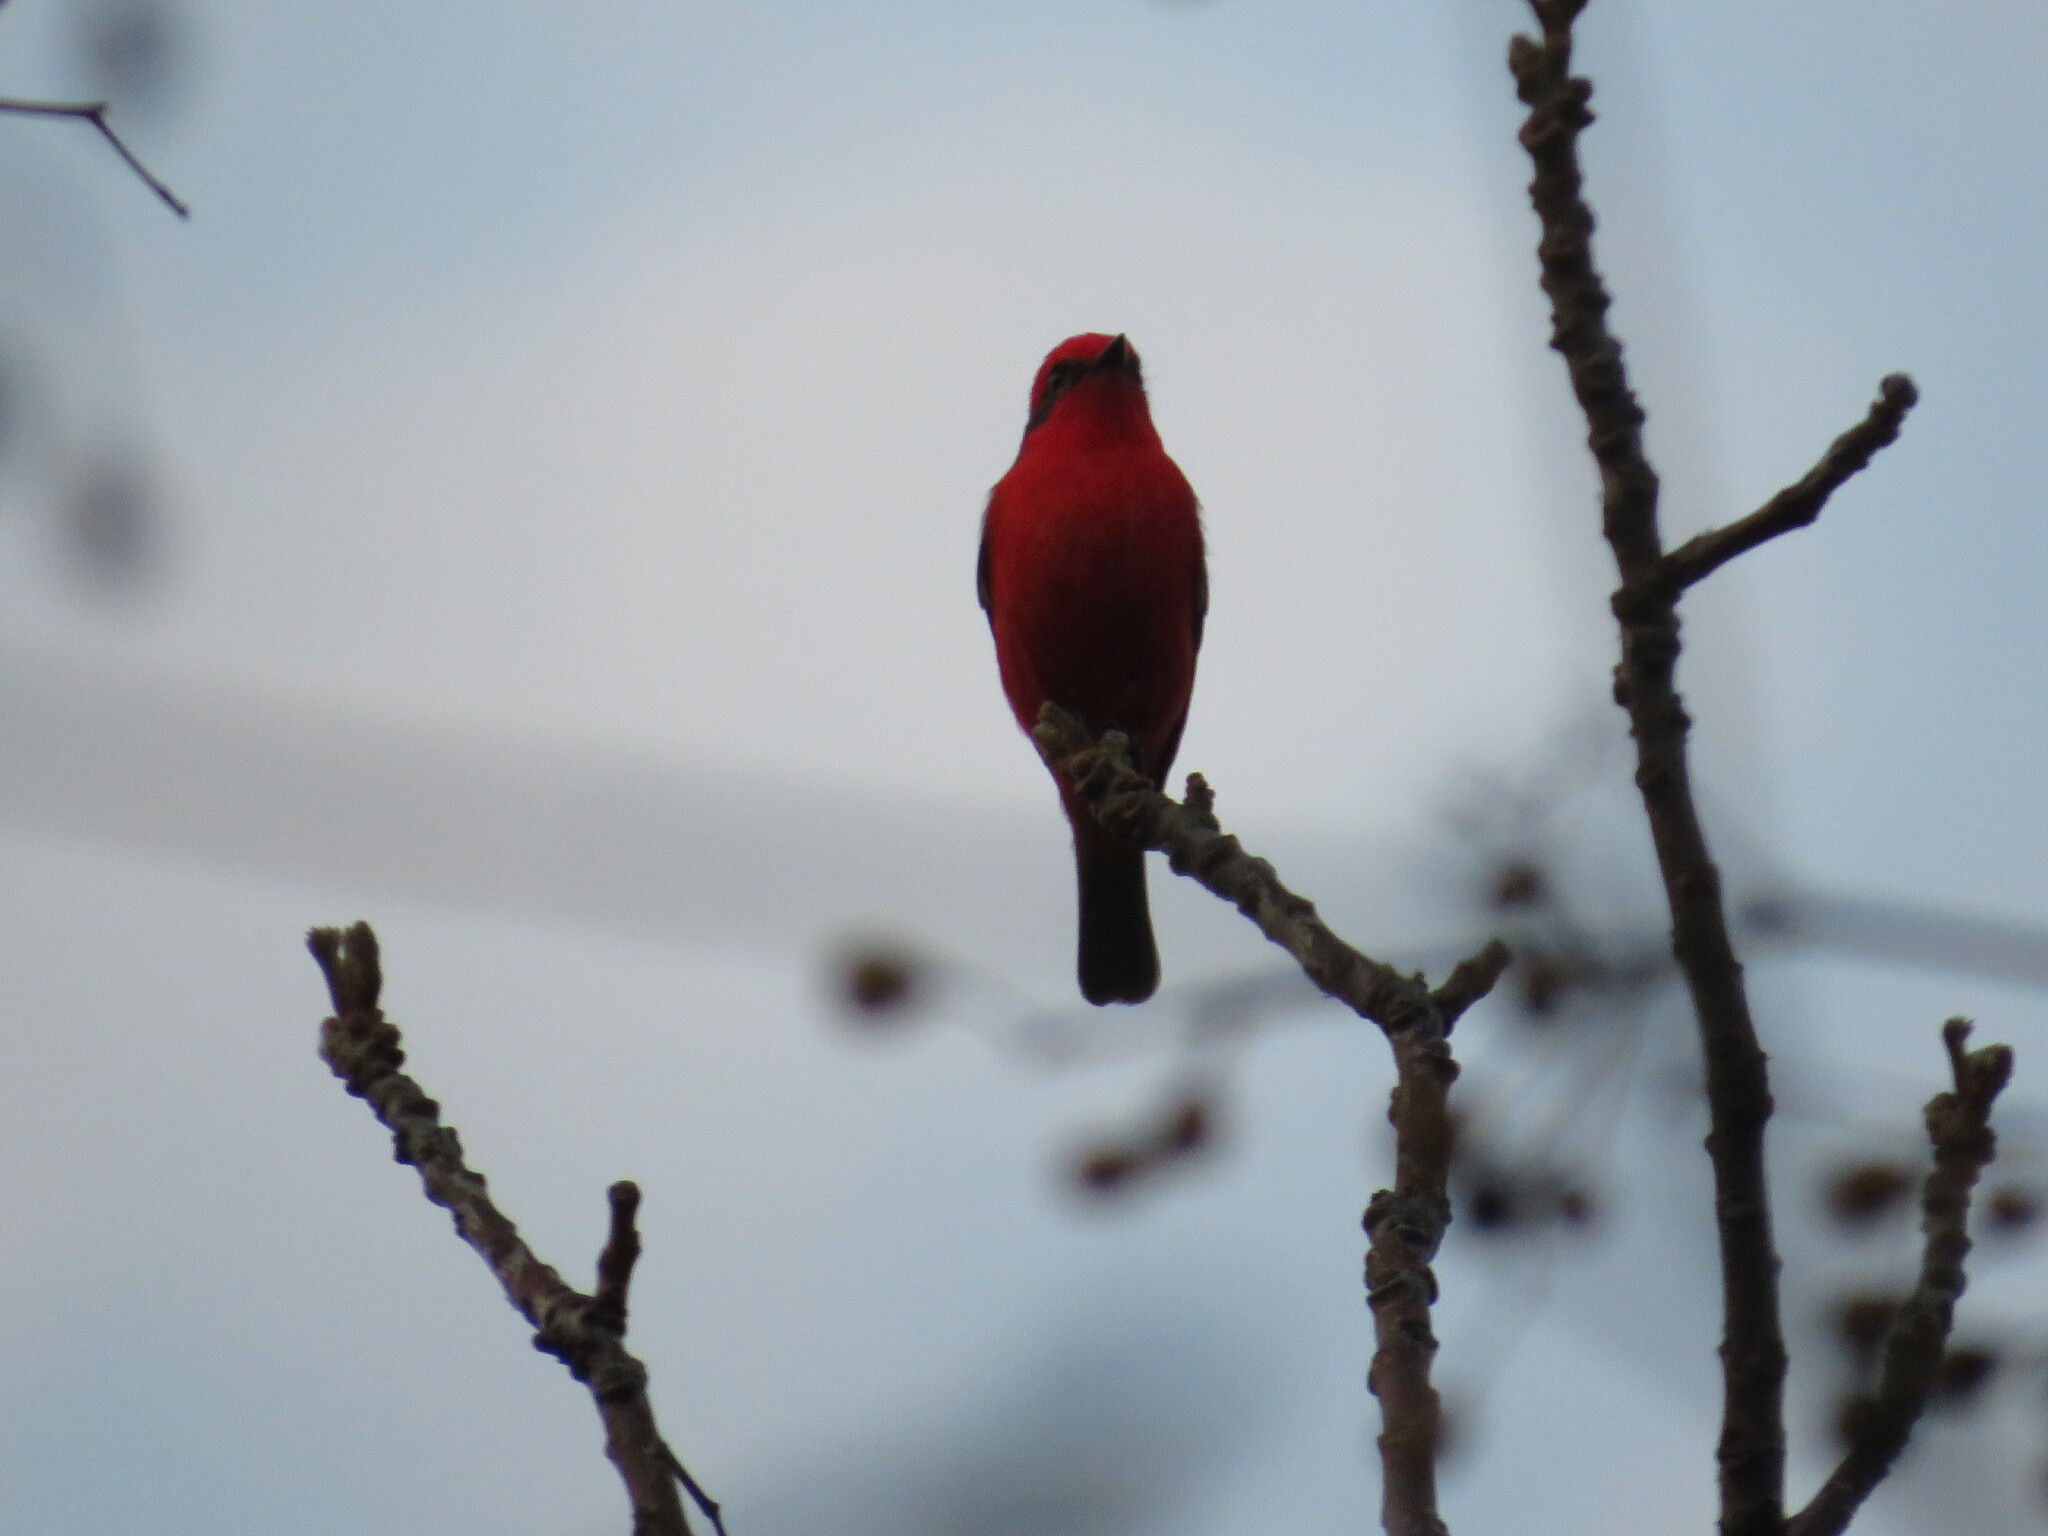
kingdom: Animalia
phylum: Chordata
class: Aves
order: Passeriformes
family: Tyrannidae
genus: Pyrocephalus
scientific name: Pyrocephalus rubinus
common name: Vermilion flycatcher
